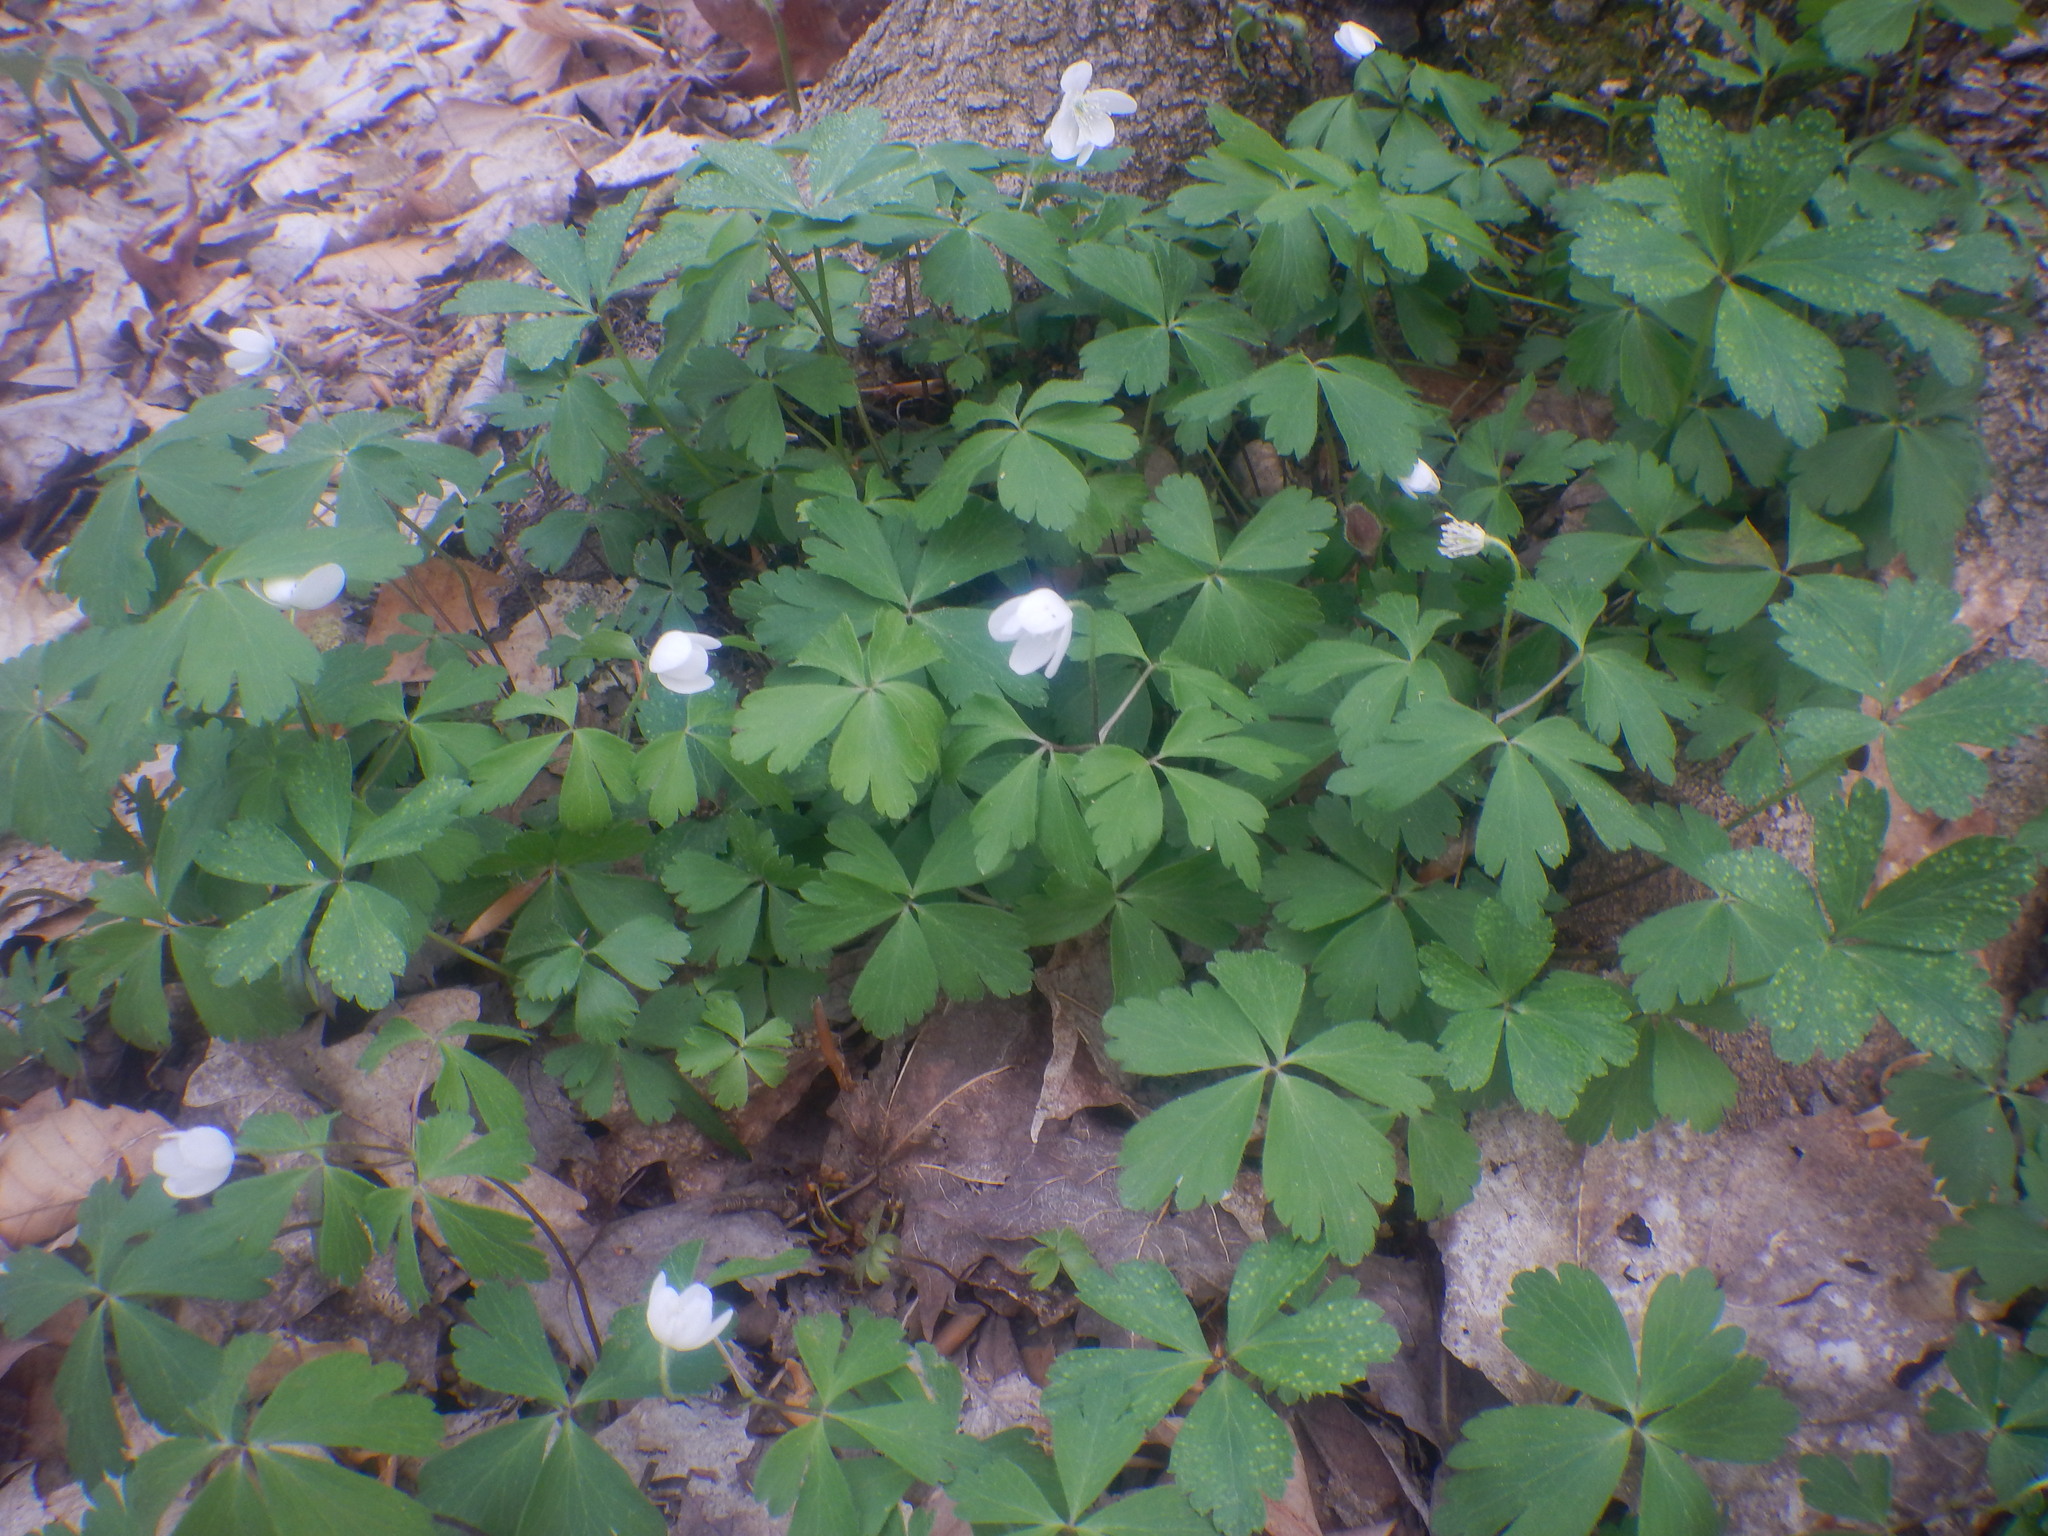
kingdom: Plantae
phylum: Tracheophyta
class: Magnoliopsida
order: Ranunculales
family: Ranunculaceae
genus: Anemone
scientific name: Anemone quinquefolia
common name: Wood anemone
